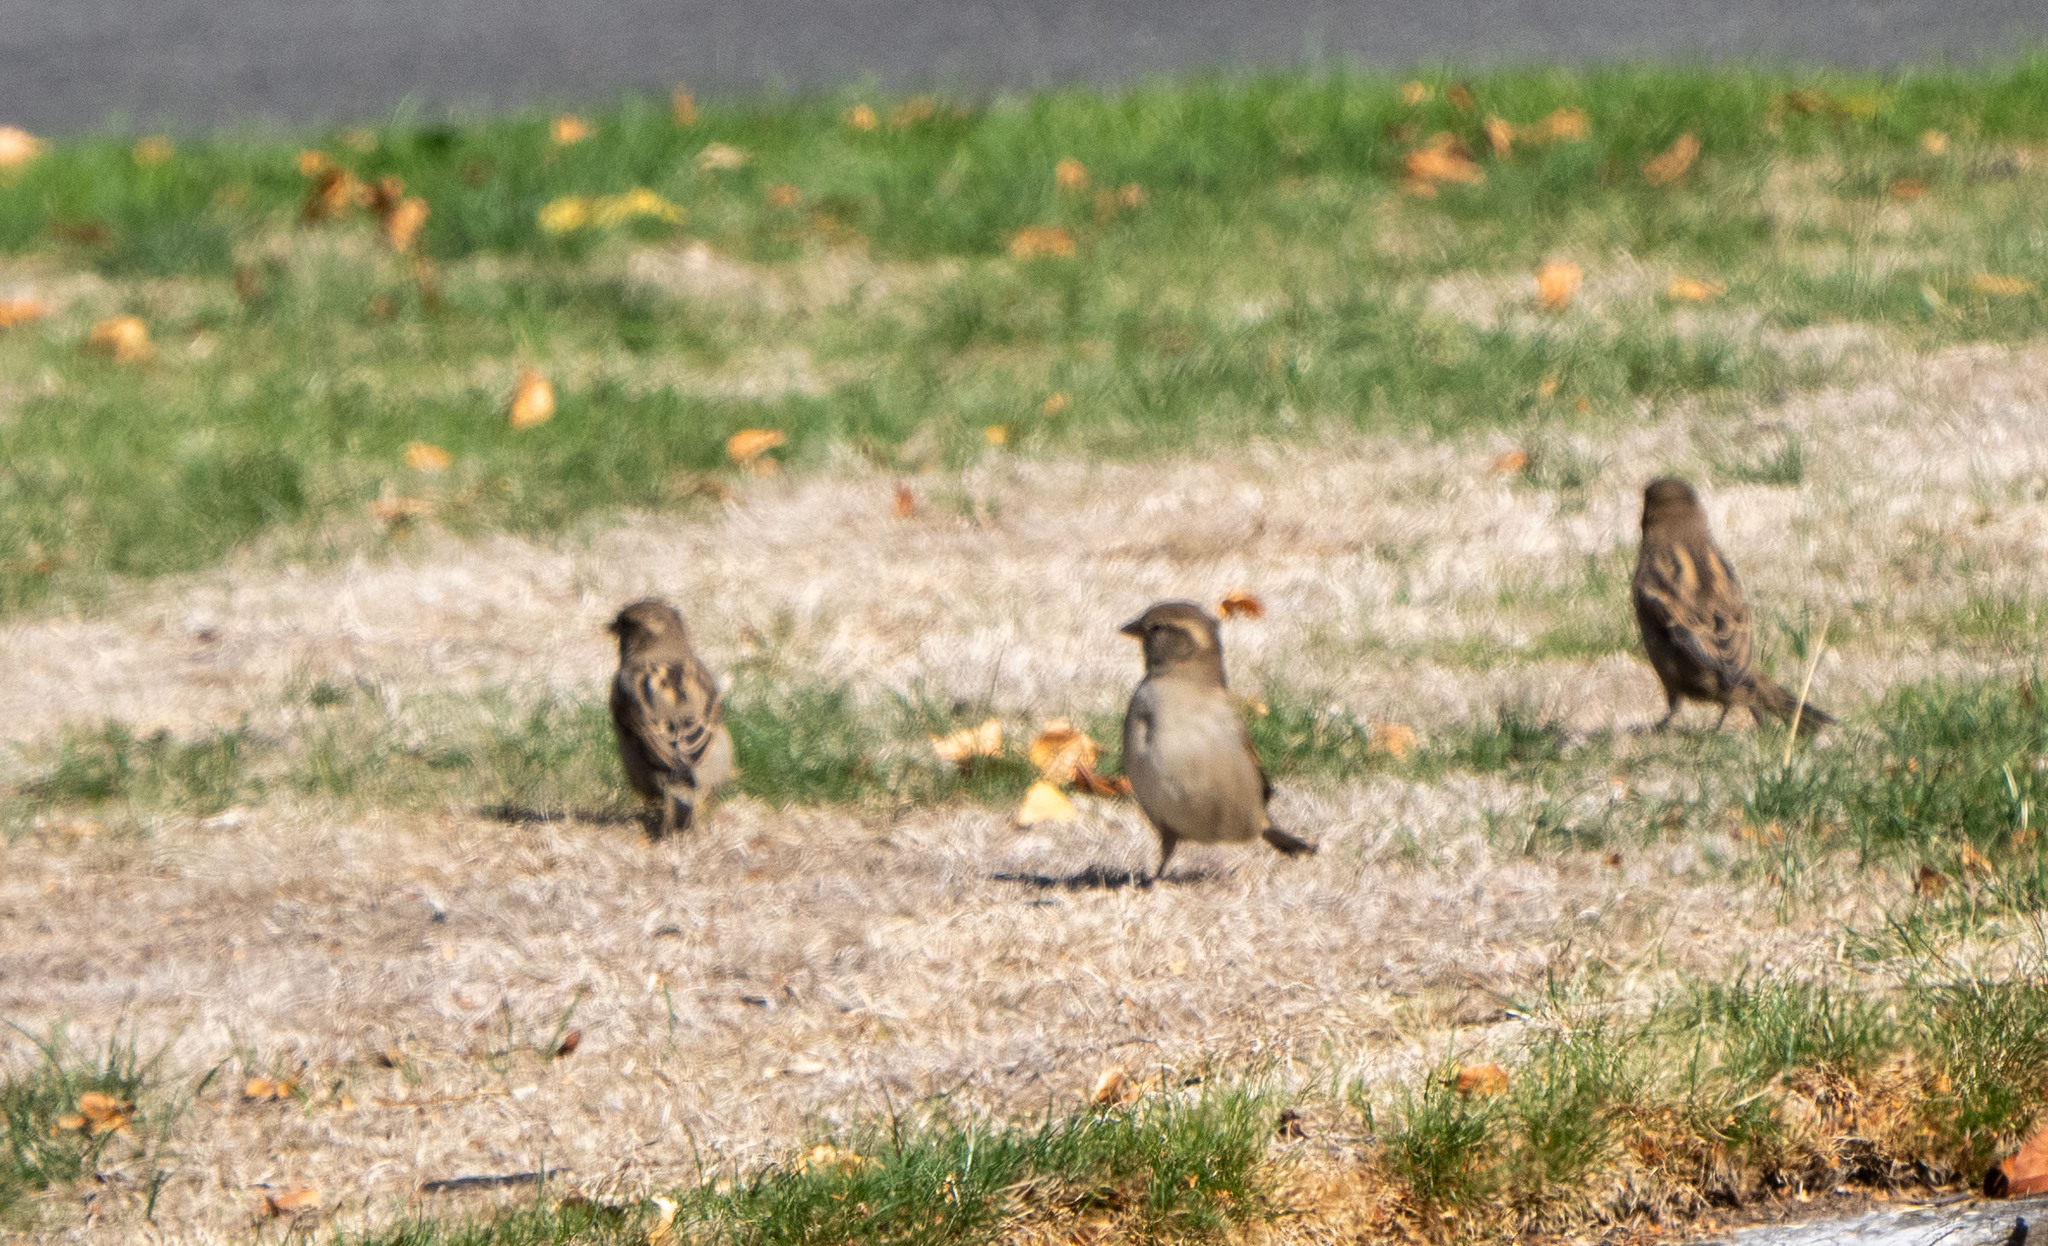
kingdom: Animalia
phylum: Chordata
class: Aves
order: Passeriformes
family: Passeridae
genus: Passer
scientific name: Passer domesticus
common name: House sparrow
